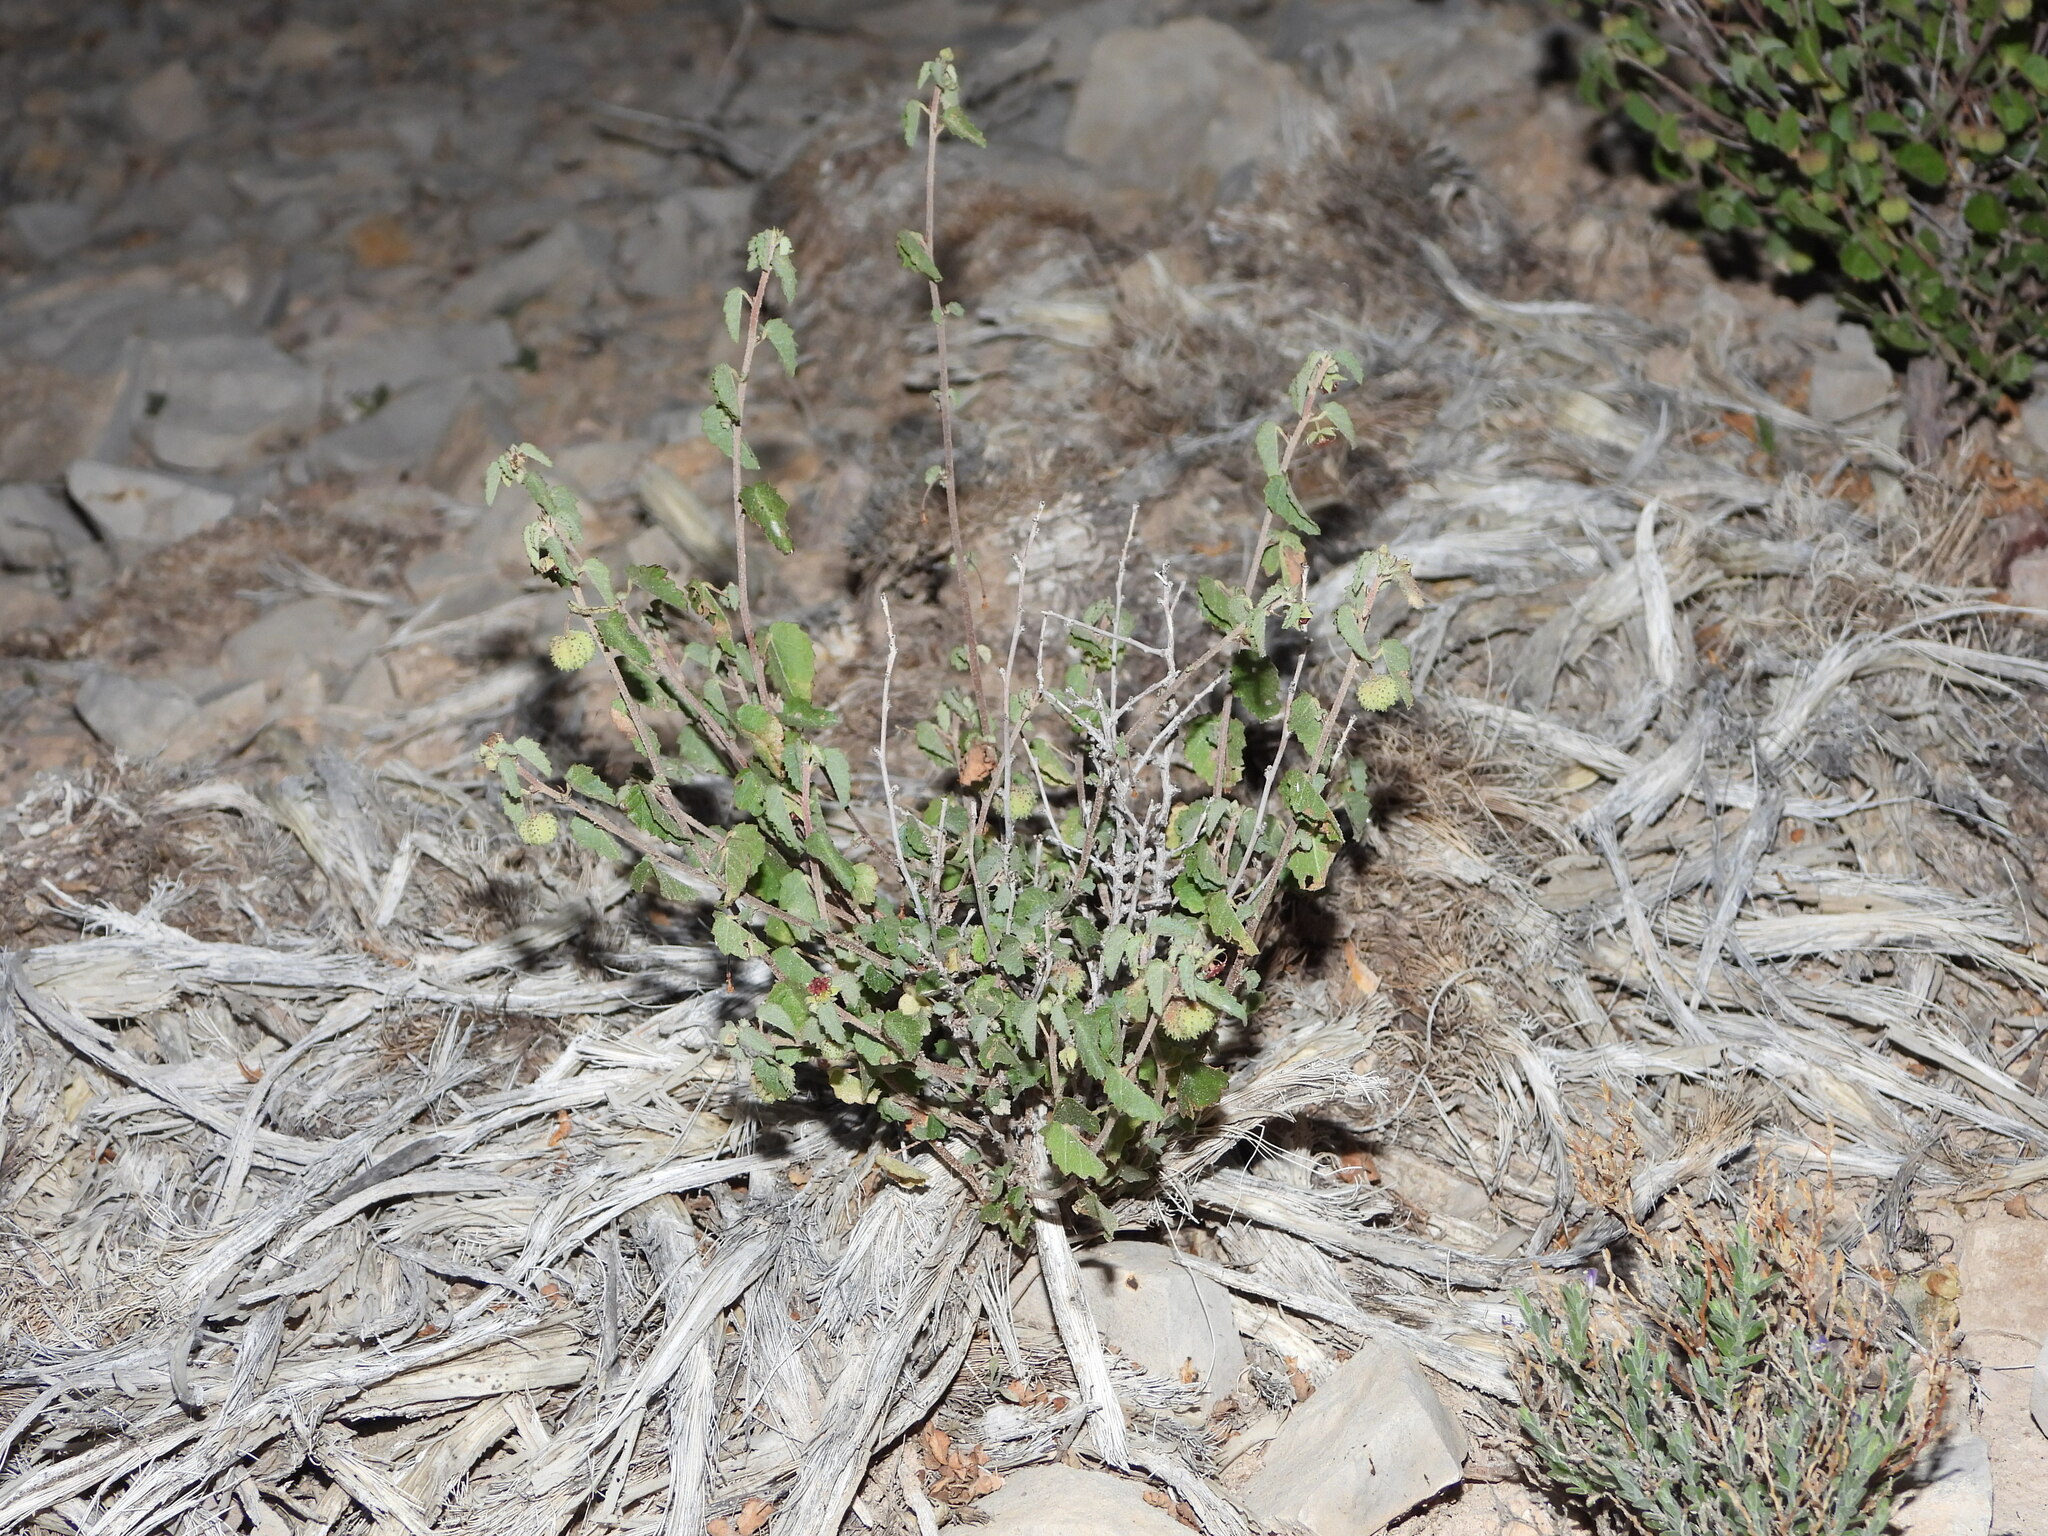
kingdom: Plantae
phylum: Tracheophyta
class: Magnoliopsida
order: Malvales
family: Malvaceae
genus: Ayenia
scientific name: Ayenia filiformis
